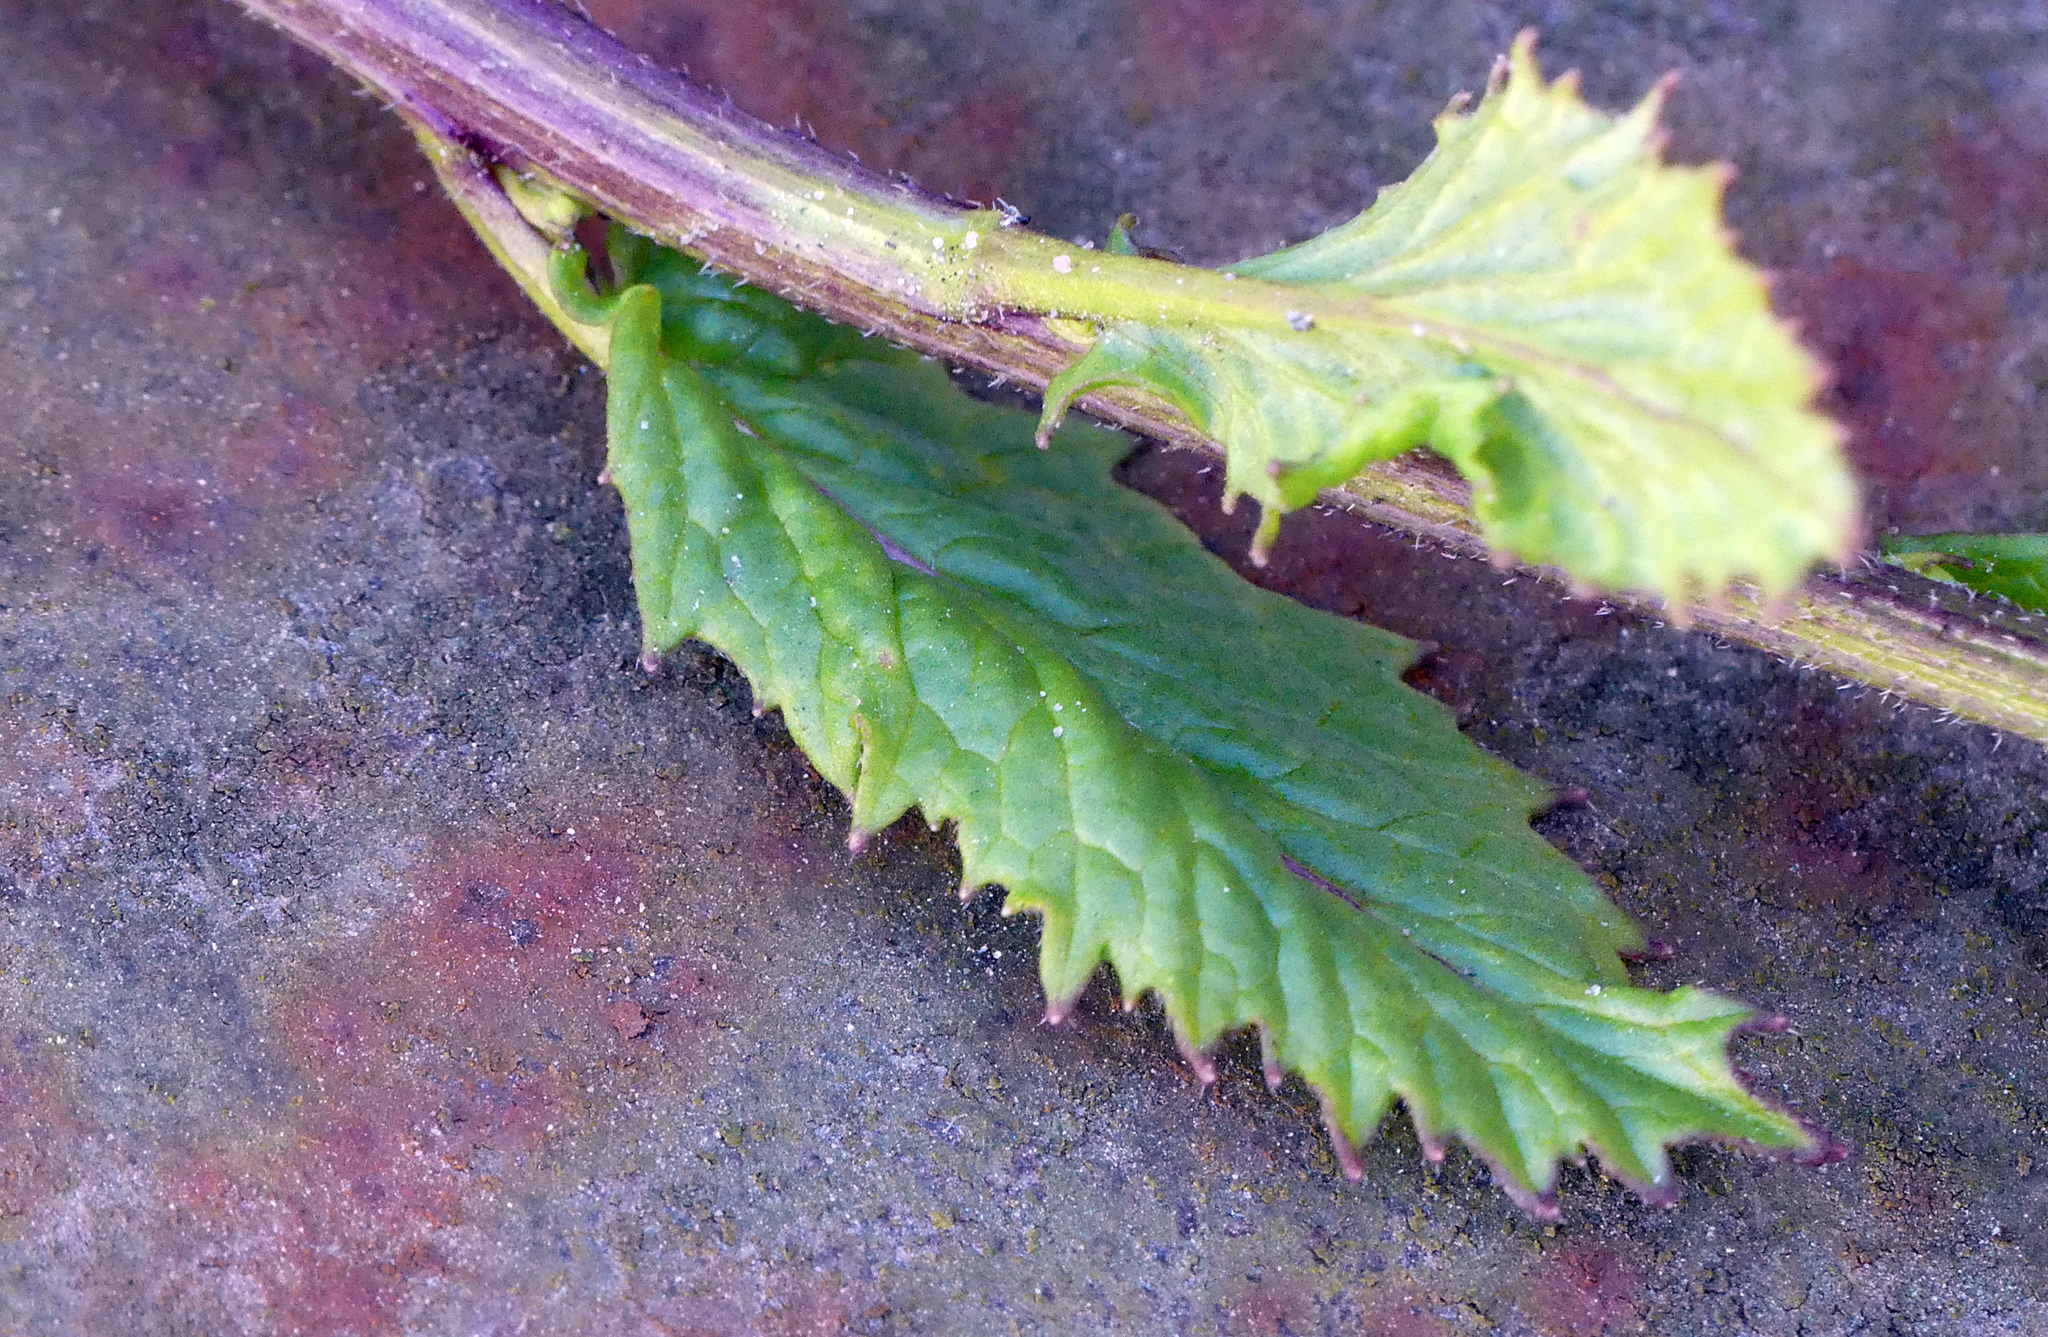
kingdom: Plantae
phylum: Tracheophyta
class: Magnoliopsida
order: Brassicales
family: Brassicaceae
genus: Sinapis
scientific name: Sinapis arvensis
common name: Charlock
